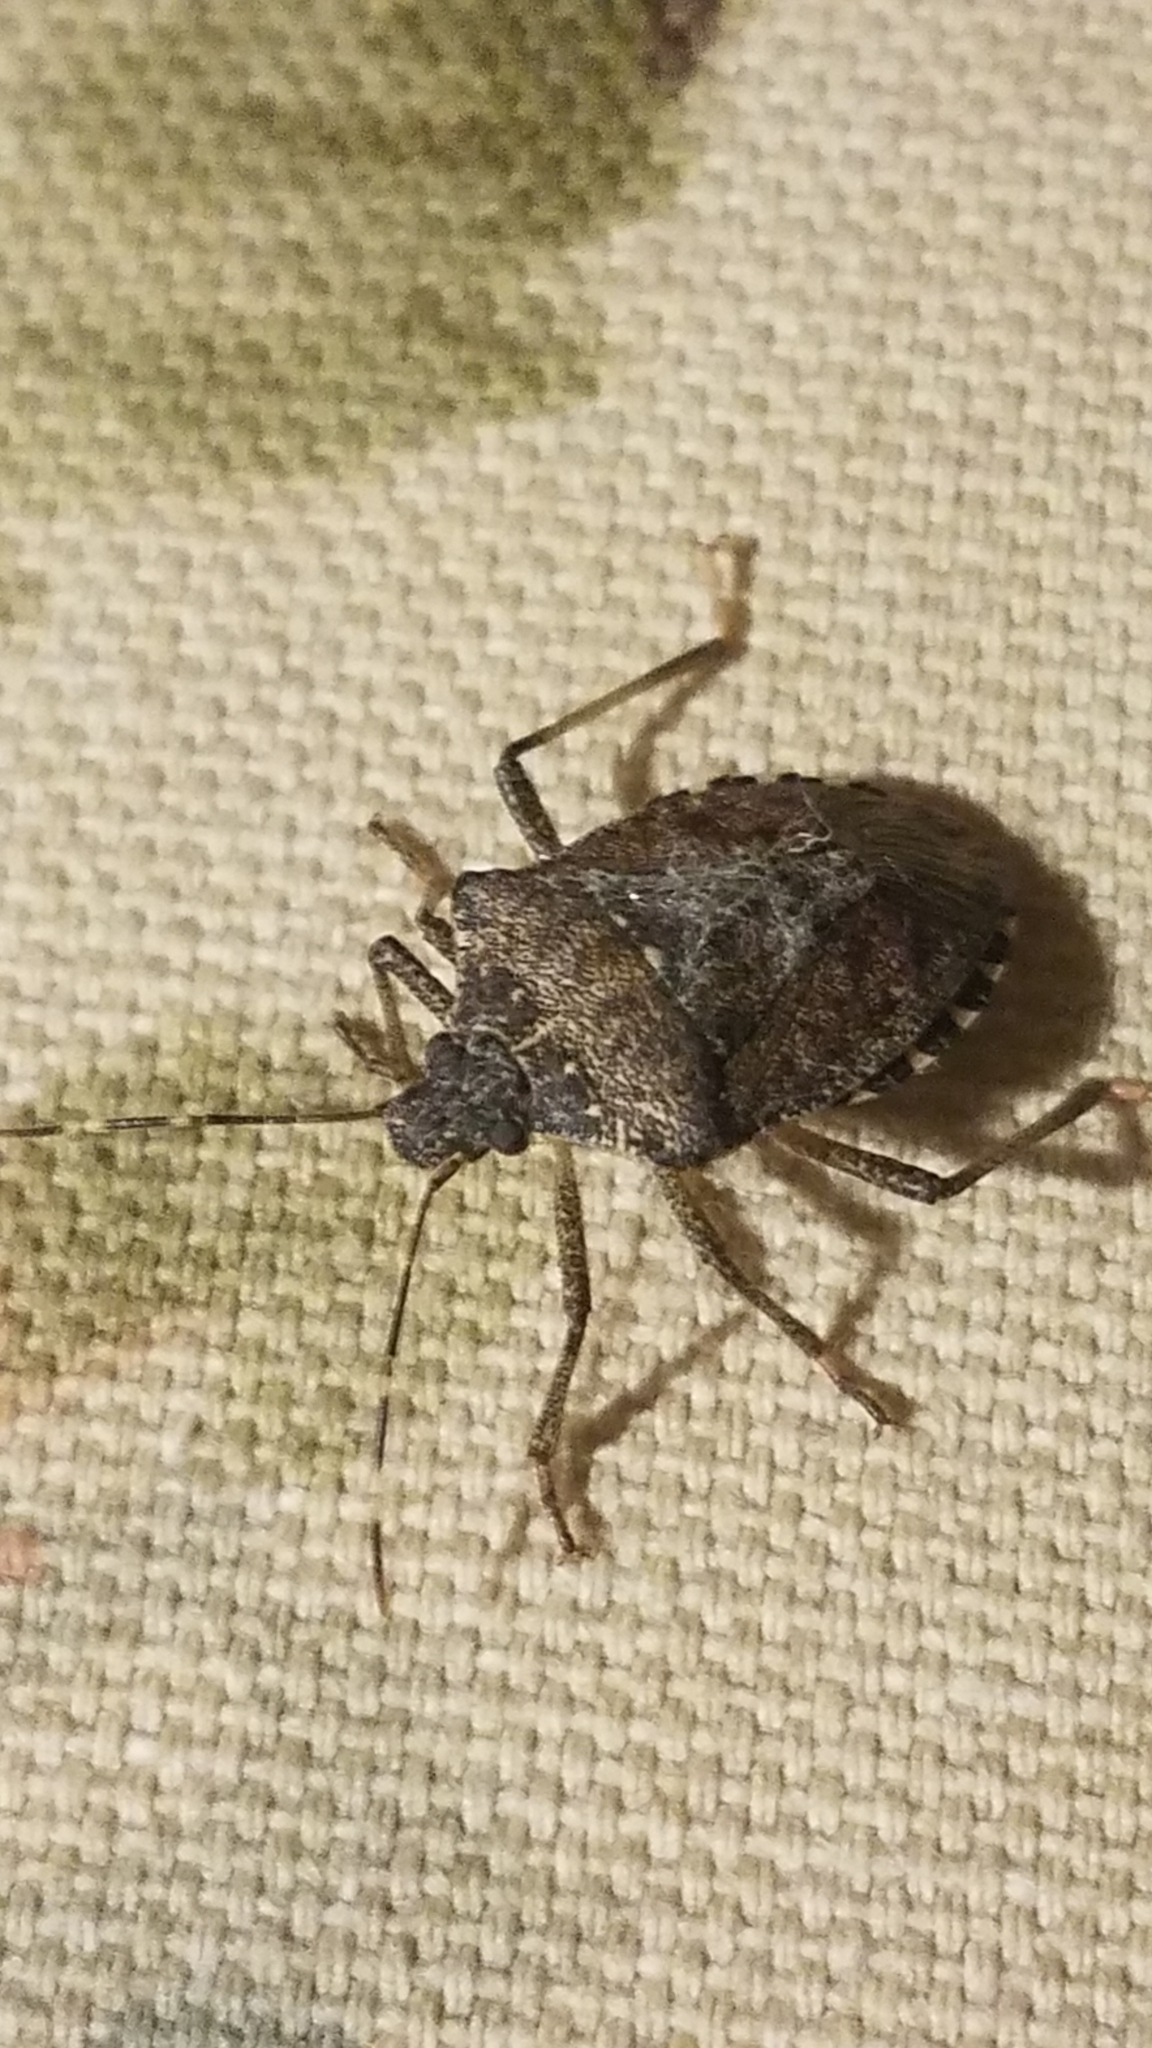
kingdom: Animalia
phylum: Arthropoda
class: Insecta
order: Hemiptera
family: Pentatomidae
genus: Halyomorpha
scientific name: Halyomorpha halys
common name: Brown marmorated stink bug
